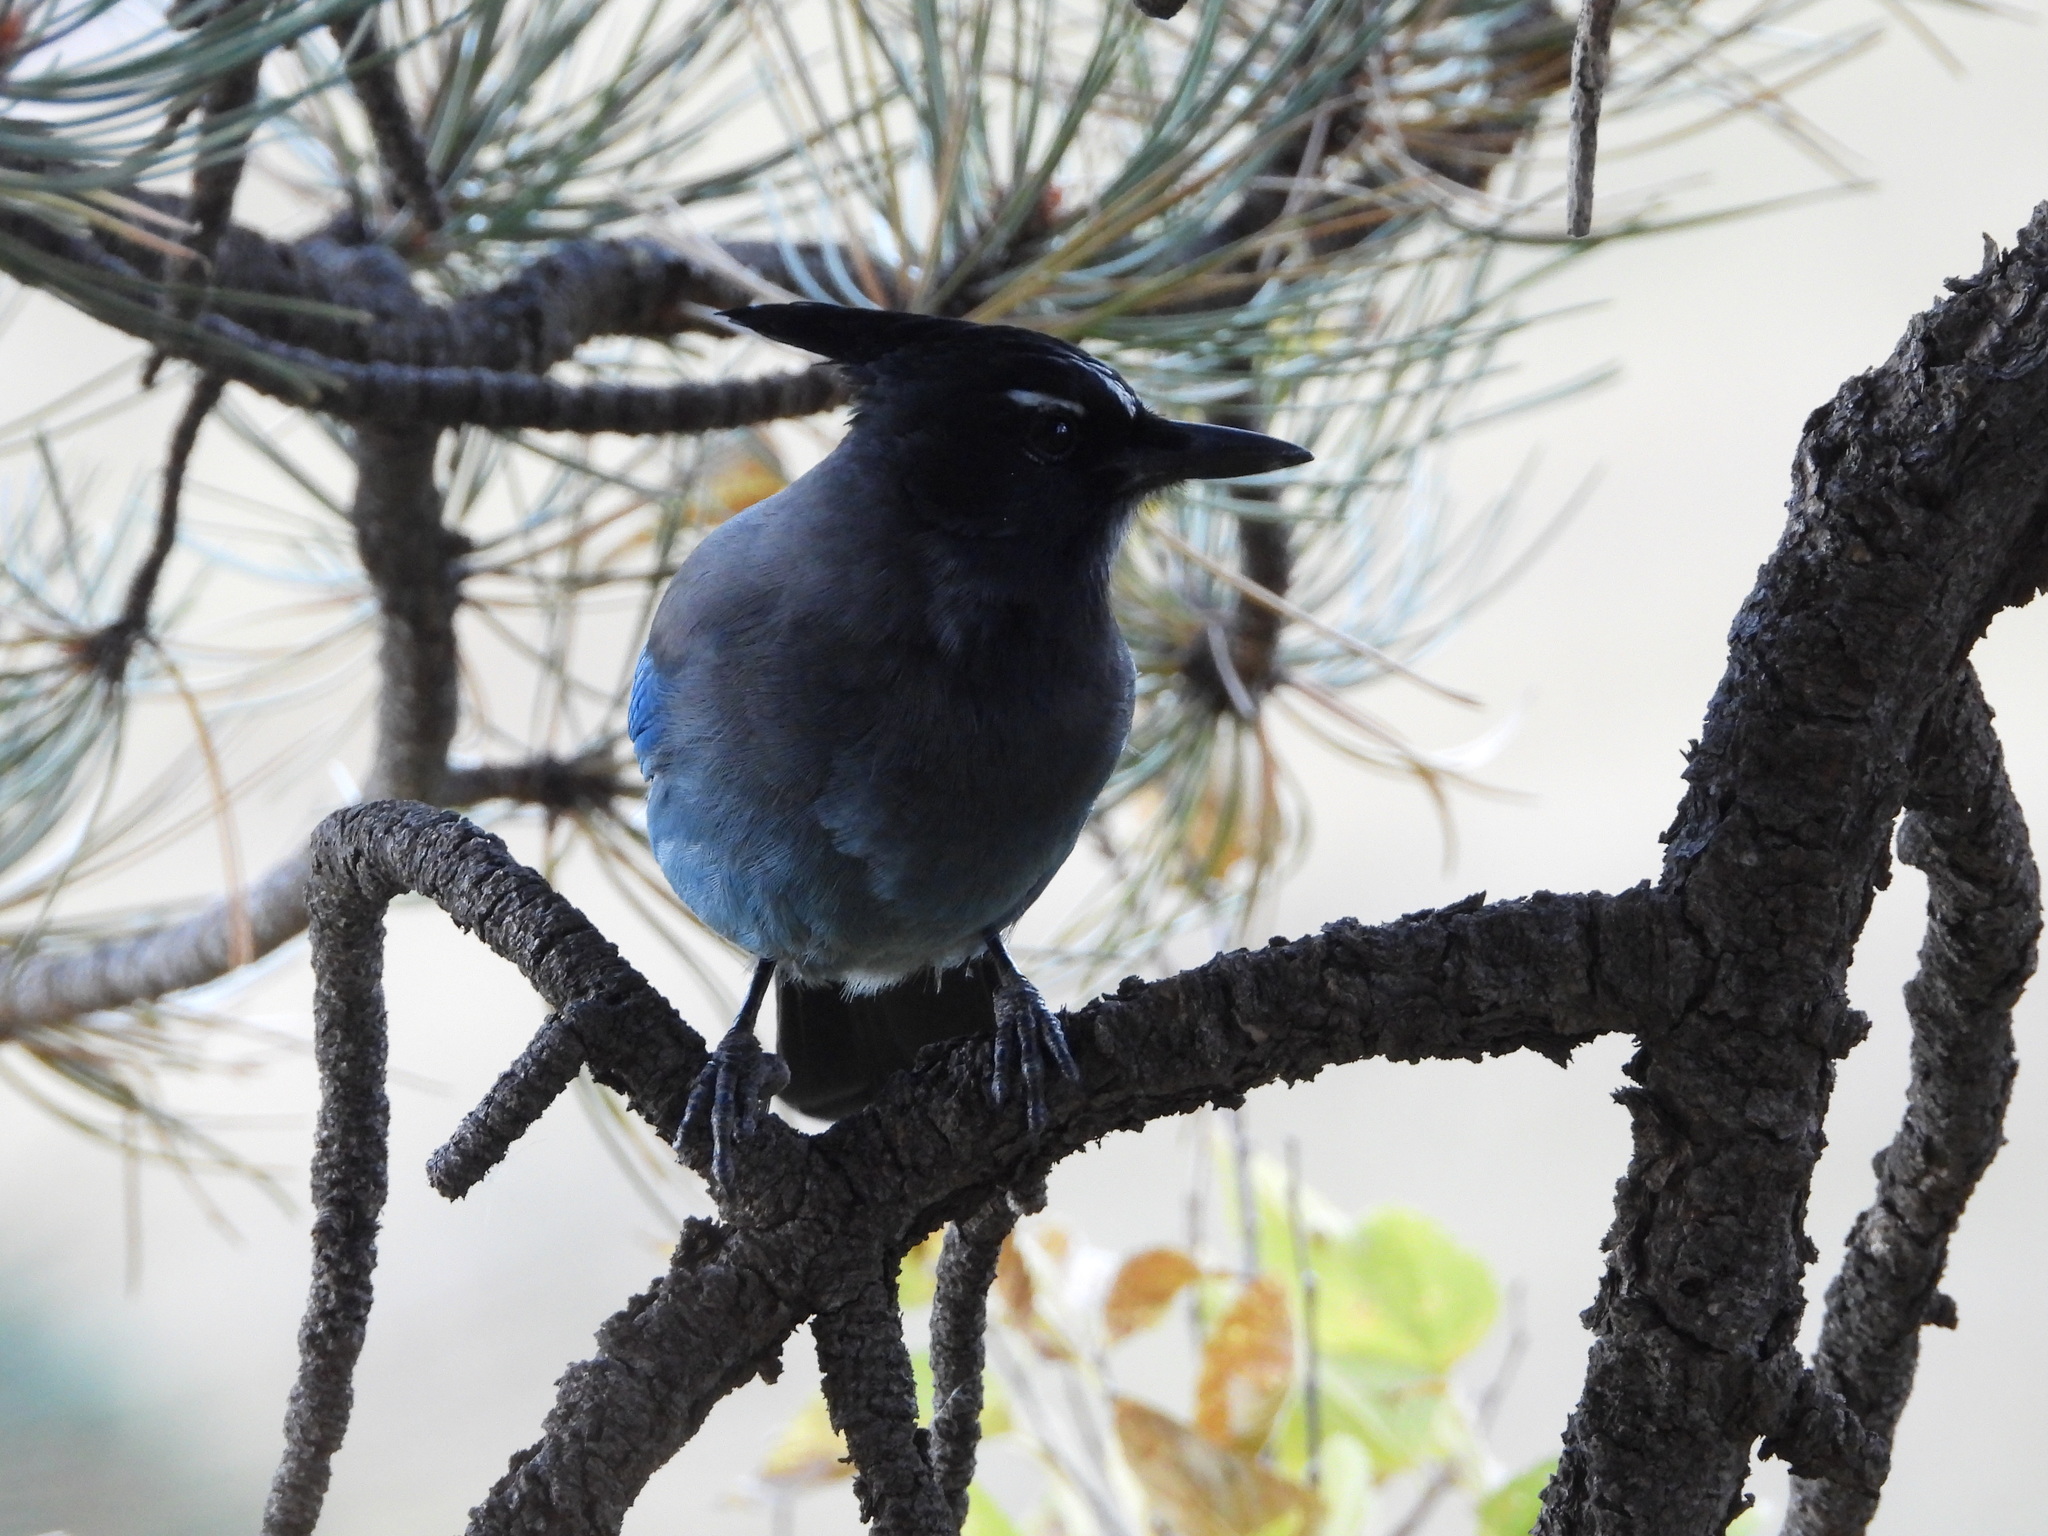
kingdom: Animalia
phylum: Chordata
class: Aves
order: Passeriformes
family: Corvidae
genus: Cyanocitta
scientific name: Cyanocitta stelleri
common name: Steller's jay
